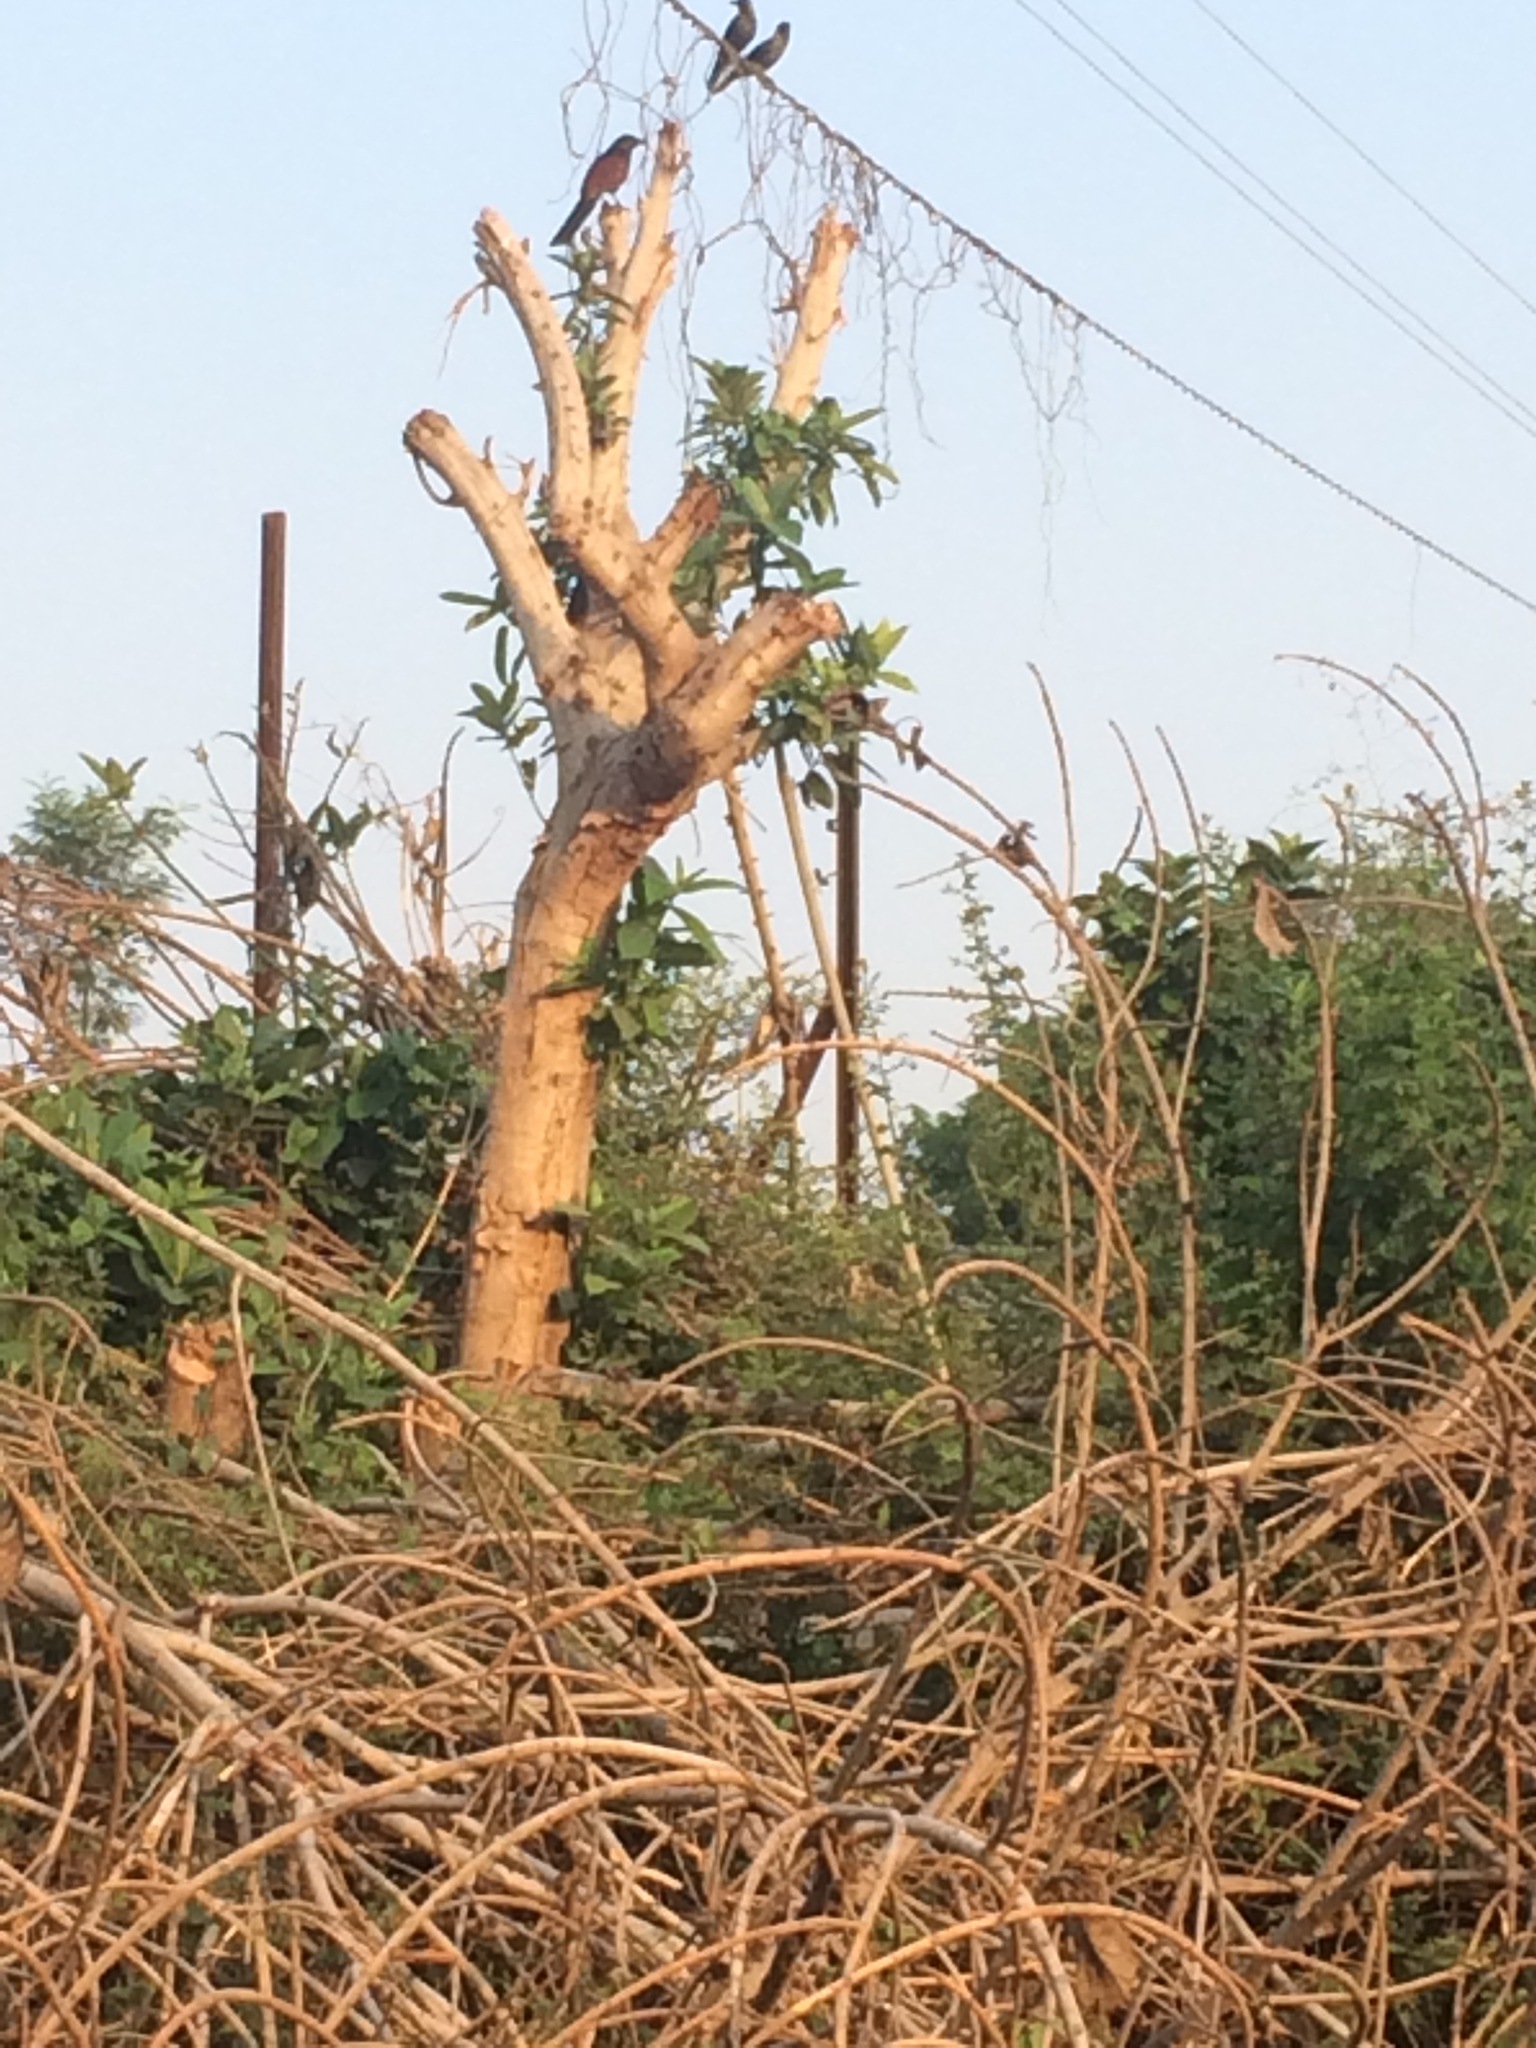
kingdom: Animalia
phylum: Chordata
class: Aves
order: Passeriformes
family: Corvidae
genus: Corvus
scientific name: Corvus splendens
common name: House crow
